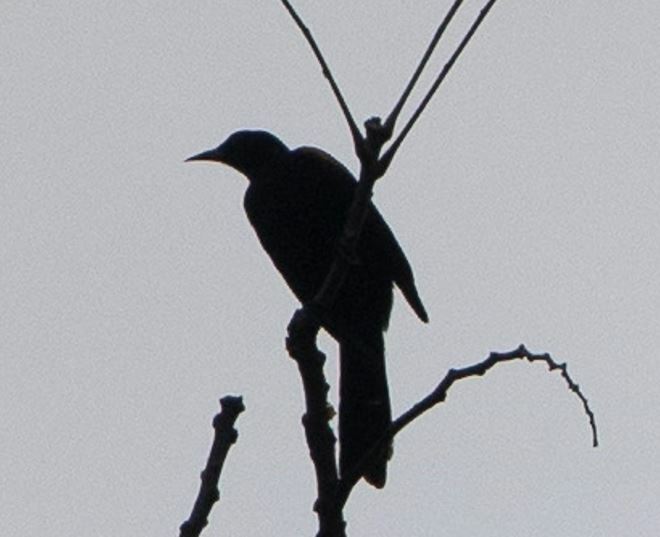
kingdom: Animalia
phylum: Chordata
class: Aves
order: Passeriformes
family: Icteridae
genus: Icterus
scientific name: Icterus cayanensis
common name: Epaulet oriole
